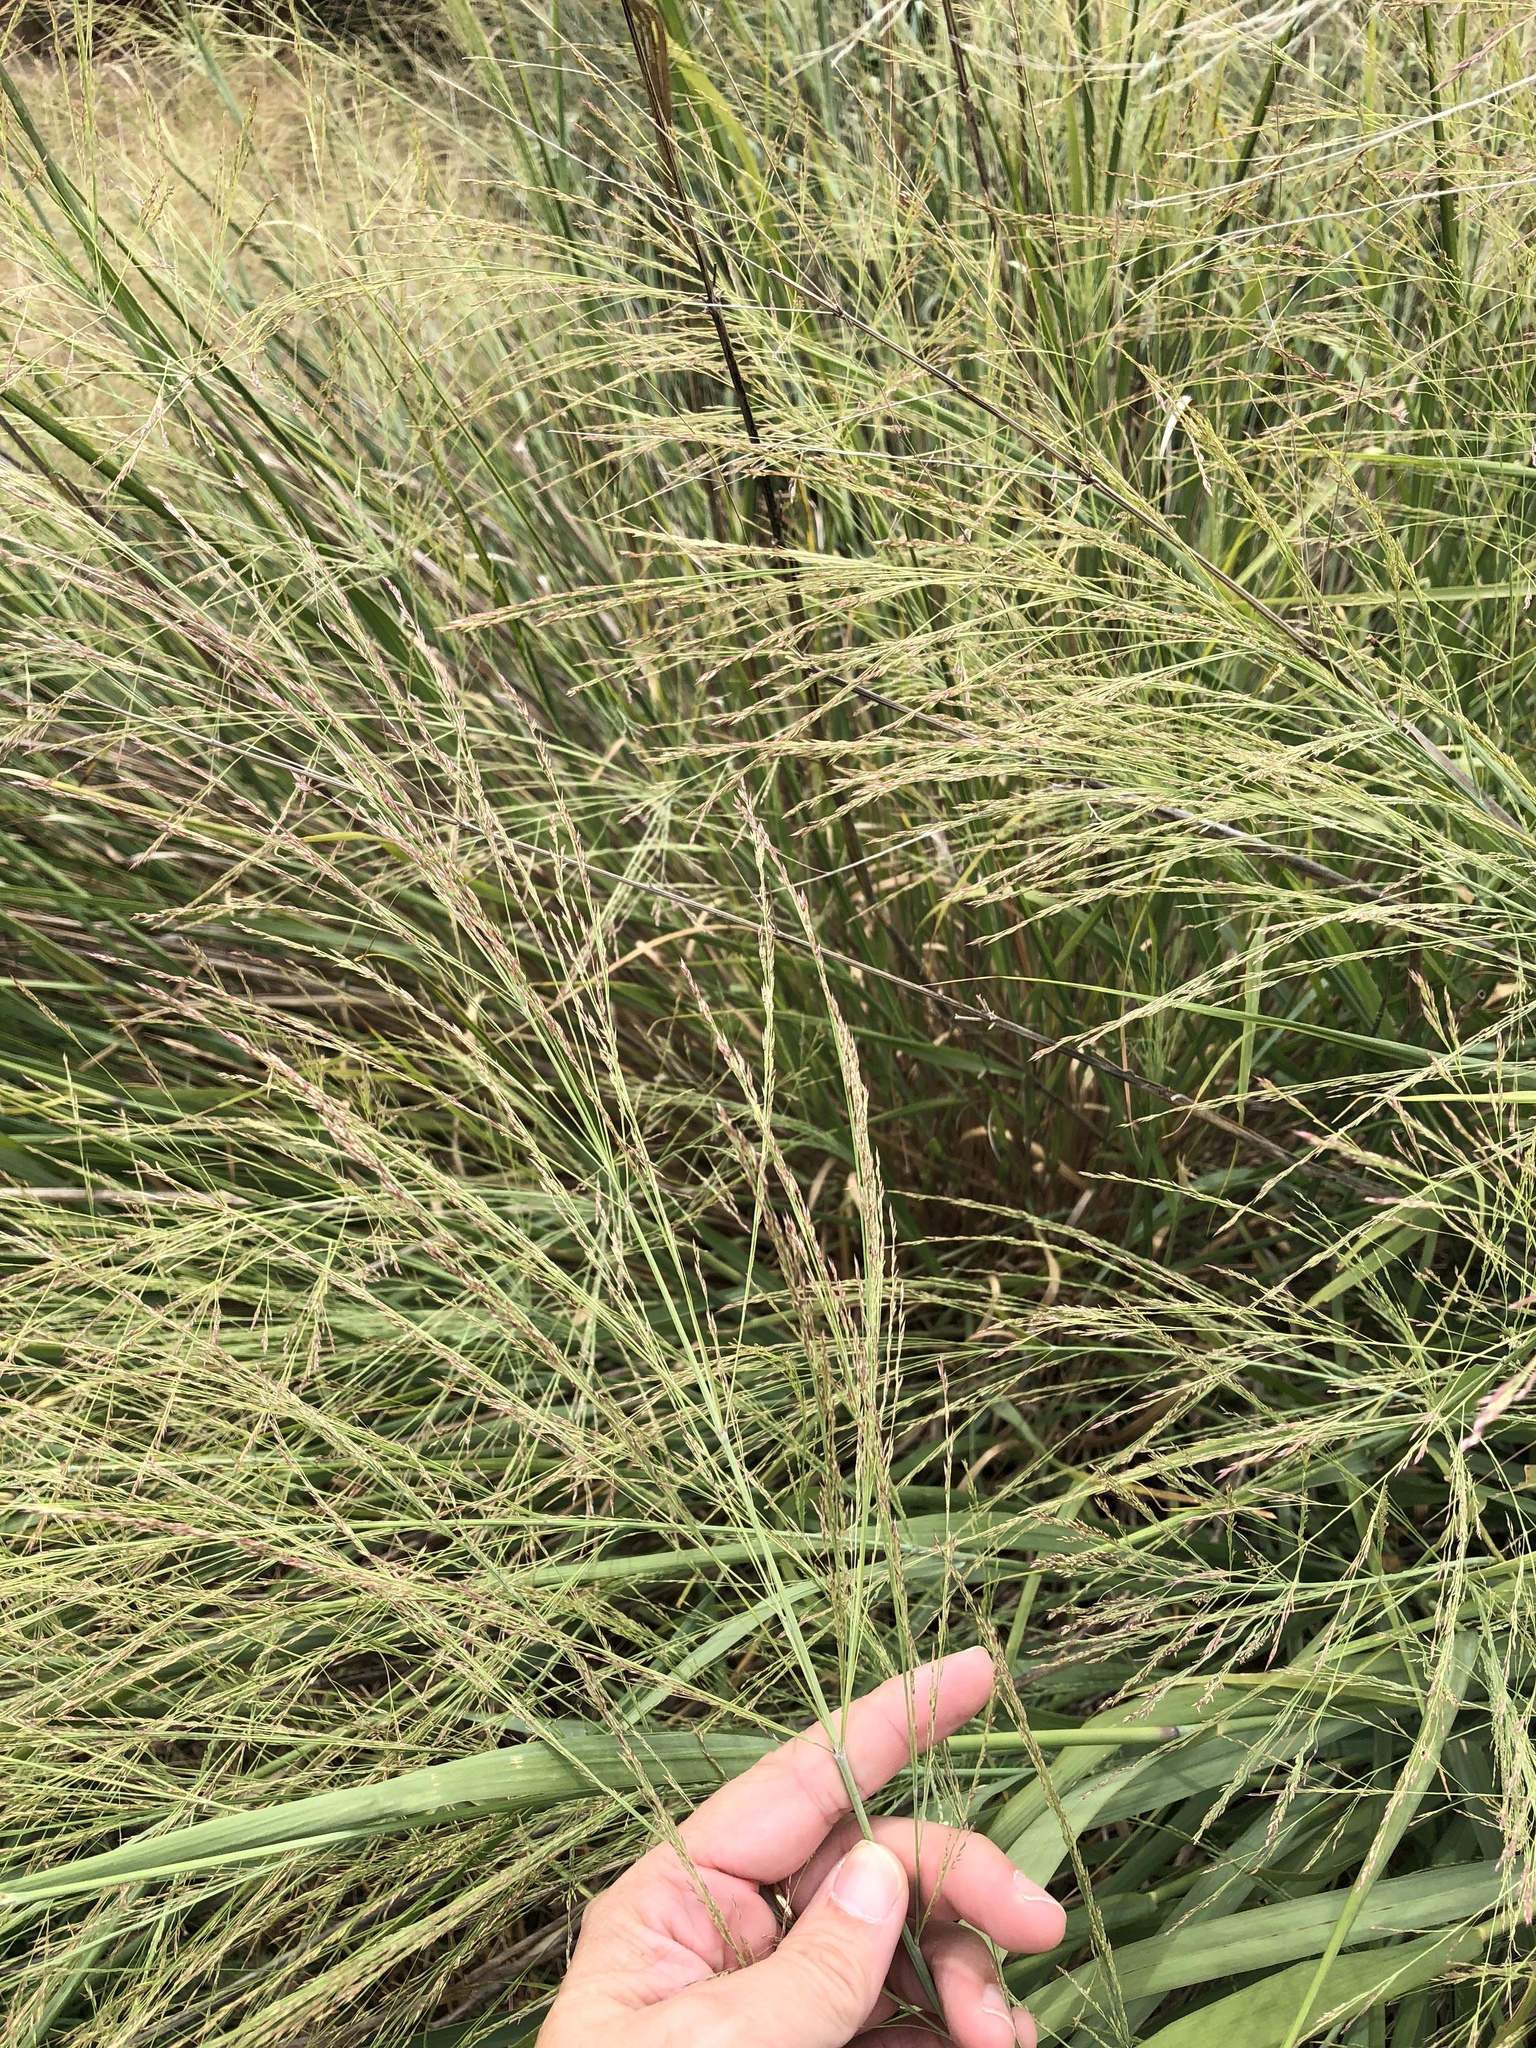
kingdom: Plantae
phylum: Tracheophyta
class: Liliopsida
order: Poales
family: Poaceae
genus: Panicum
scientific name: Panicum virgatum
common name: Switchgrass
